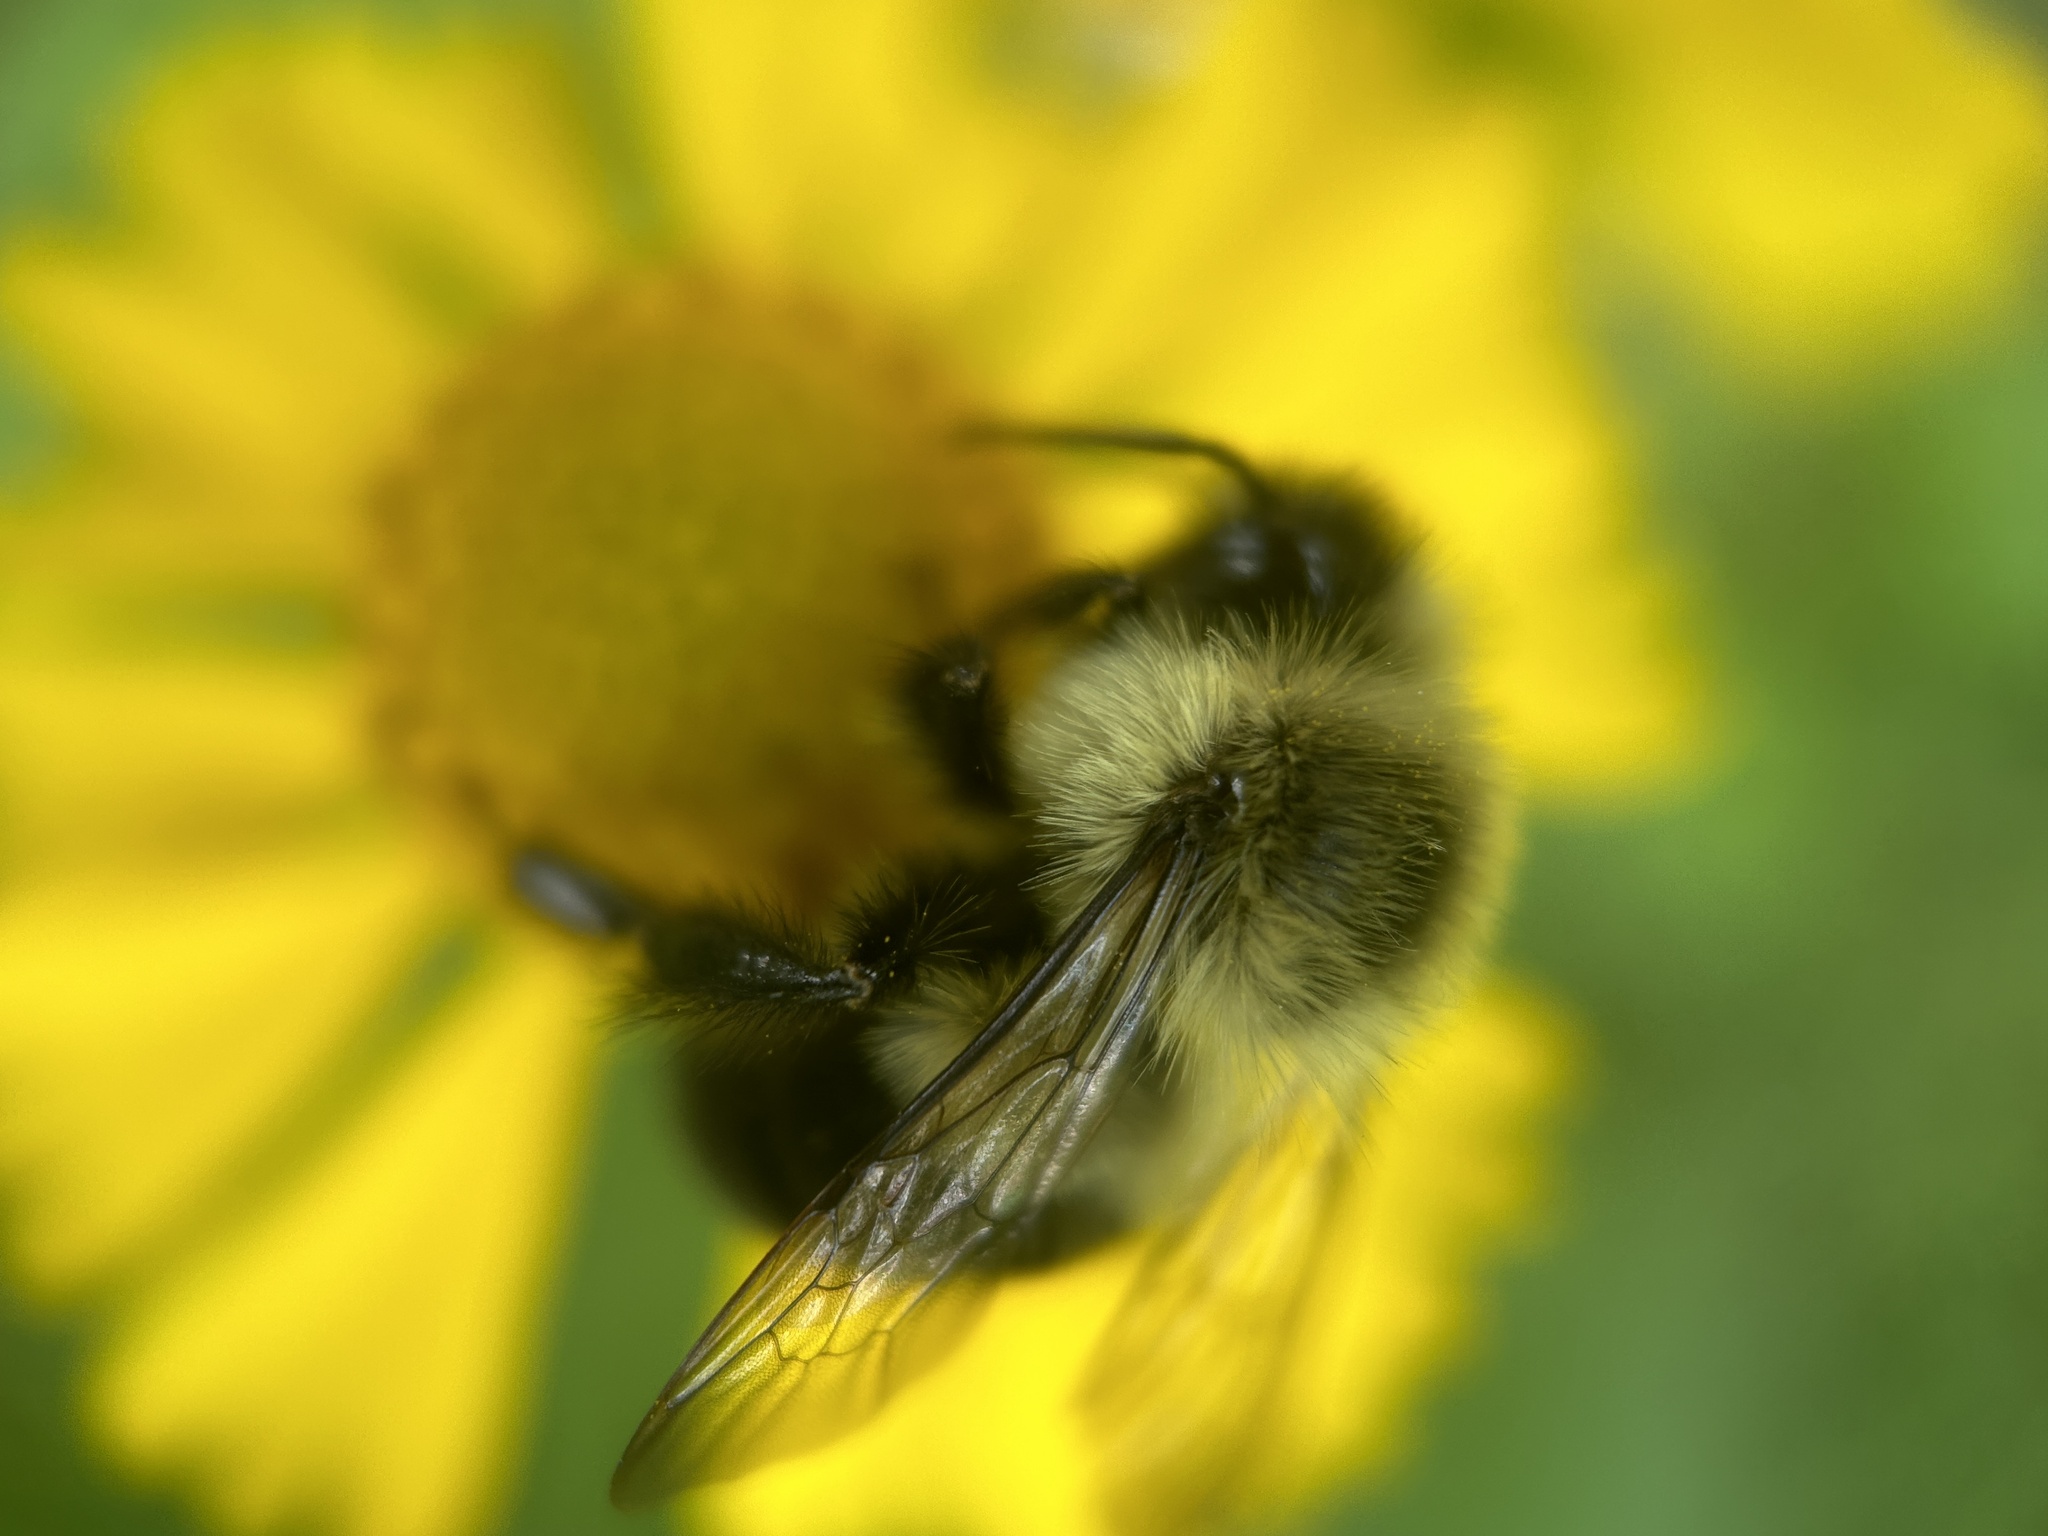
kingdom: Animalia
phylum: Arthropoda
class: Insecta
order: Hymenoptera
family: Apidae
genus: Bombus
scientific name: Bombus impatiens
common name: Common eastern bumble bee
